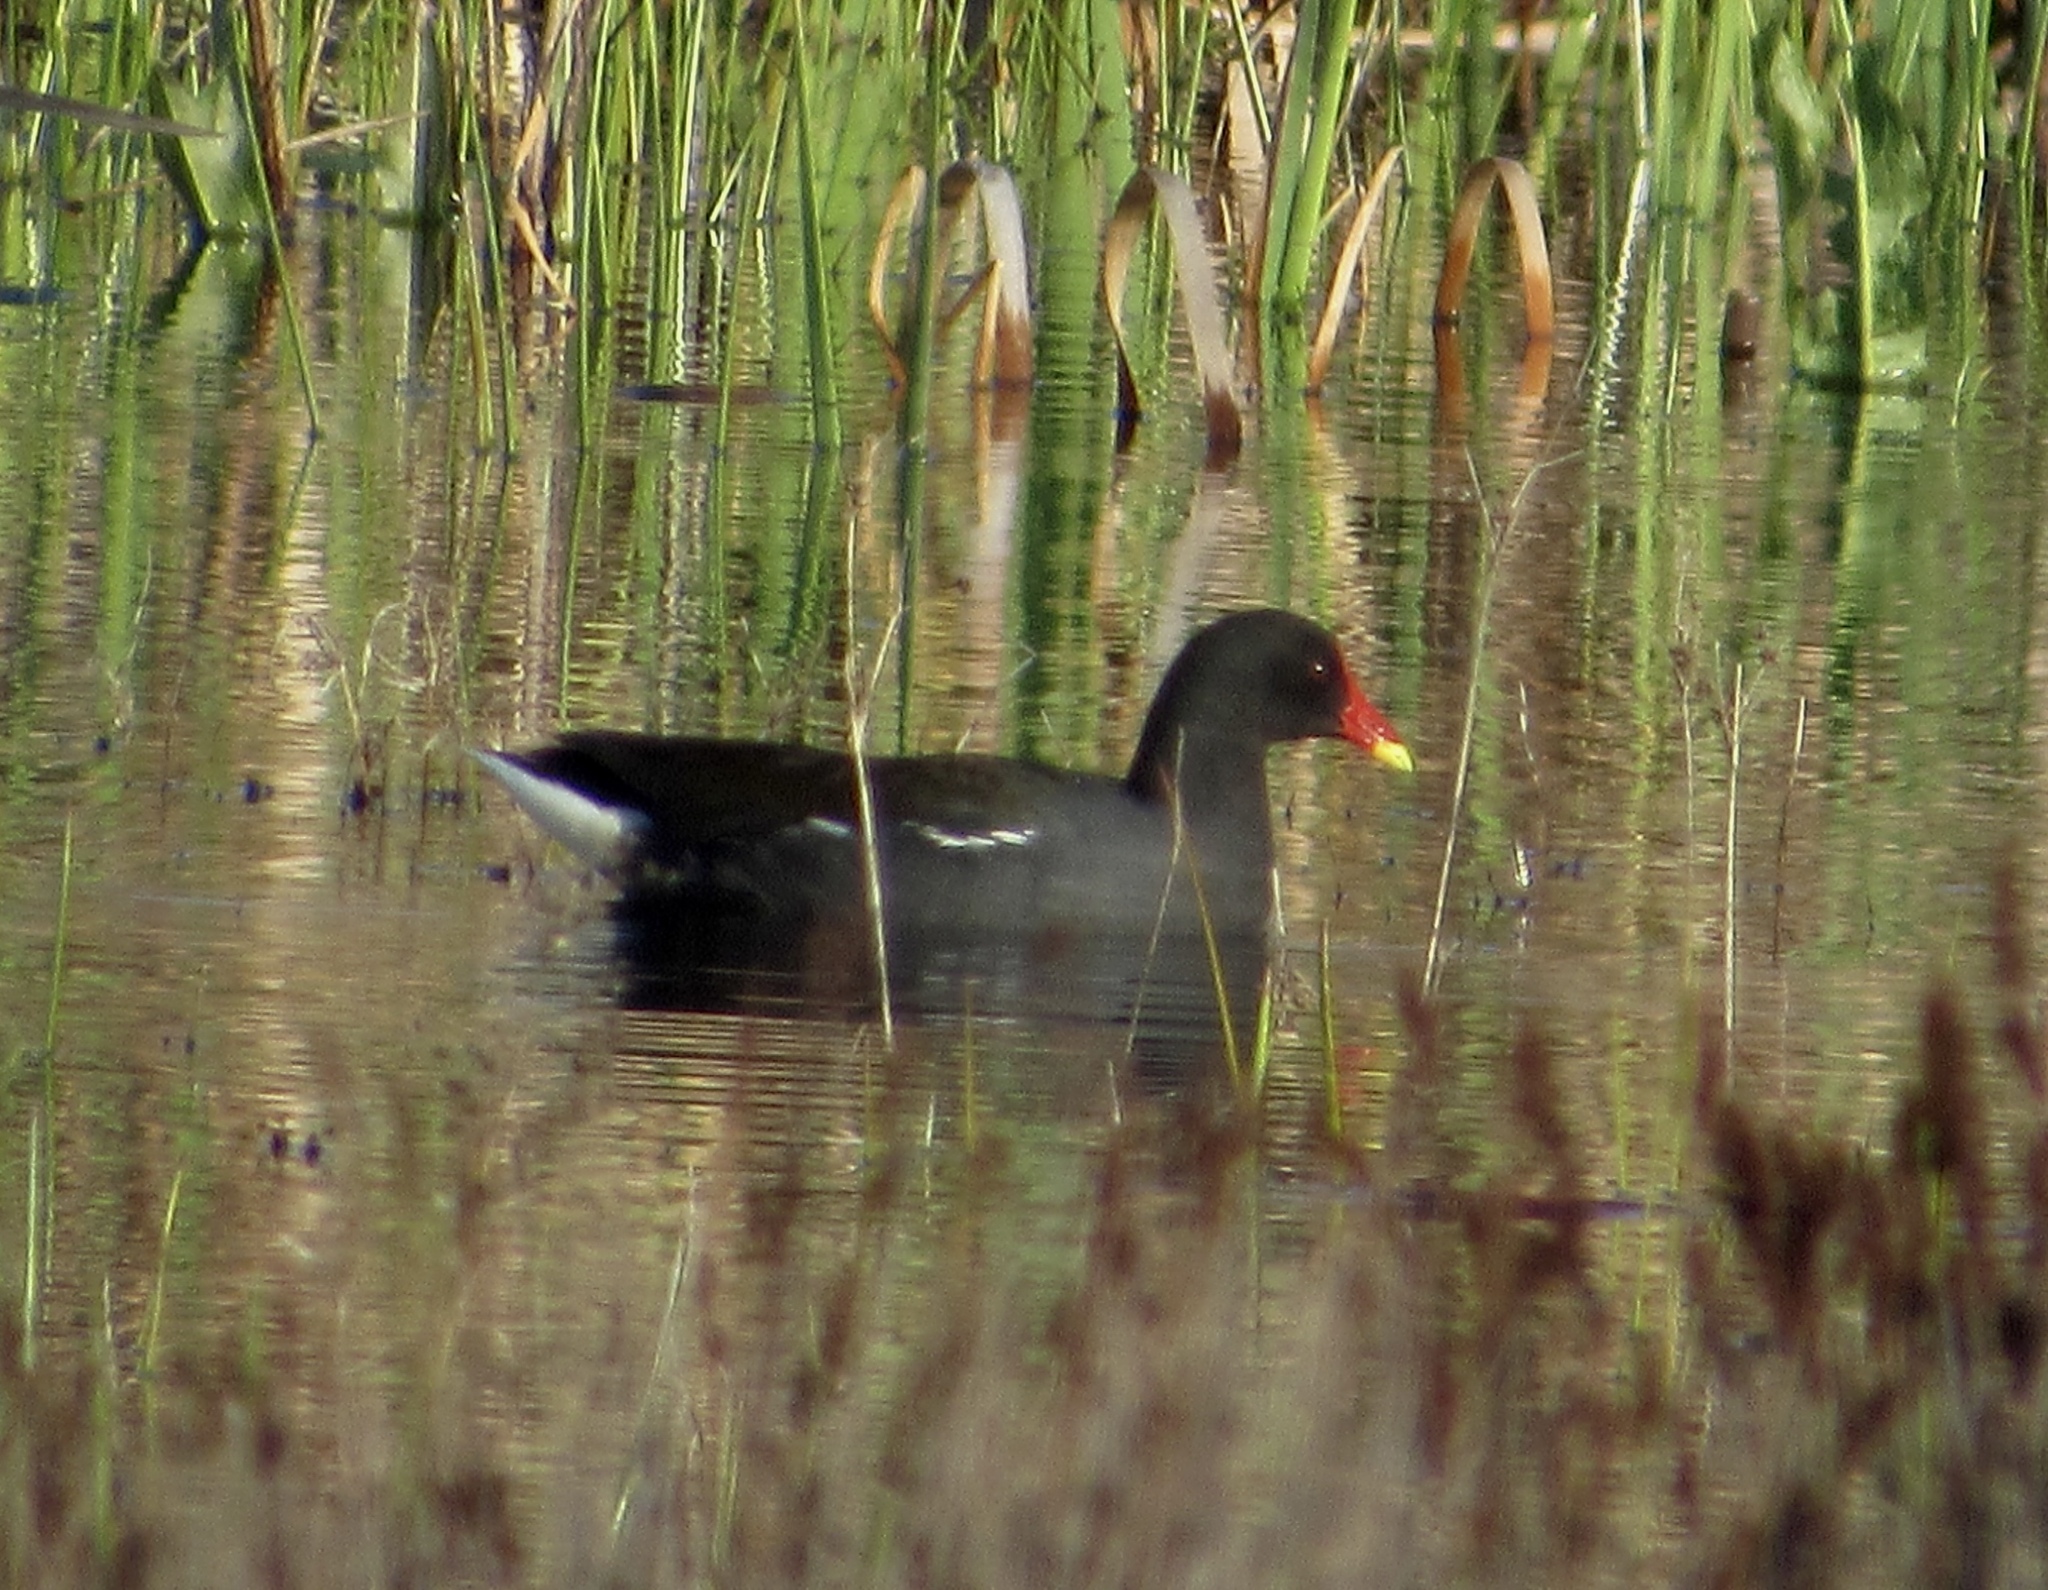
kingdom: Animalia
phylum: Chordata
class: Aves
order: Gruiformes
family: Rallidae
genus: Gallinula
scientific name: Gallinula chloropus
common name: Common moorhen
